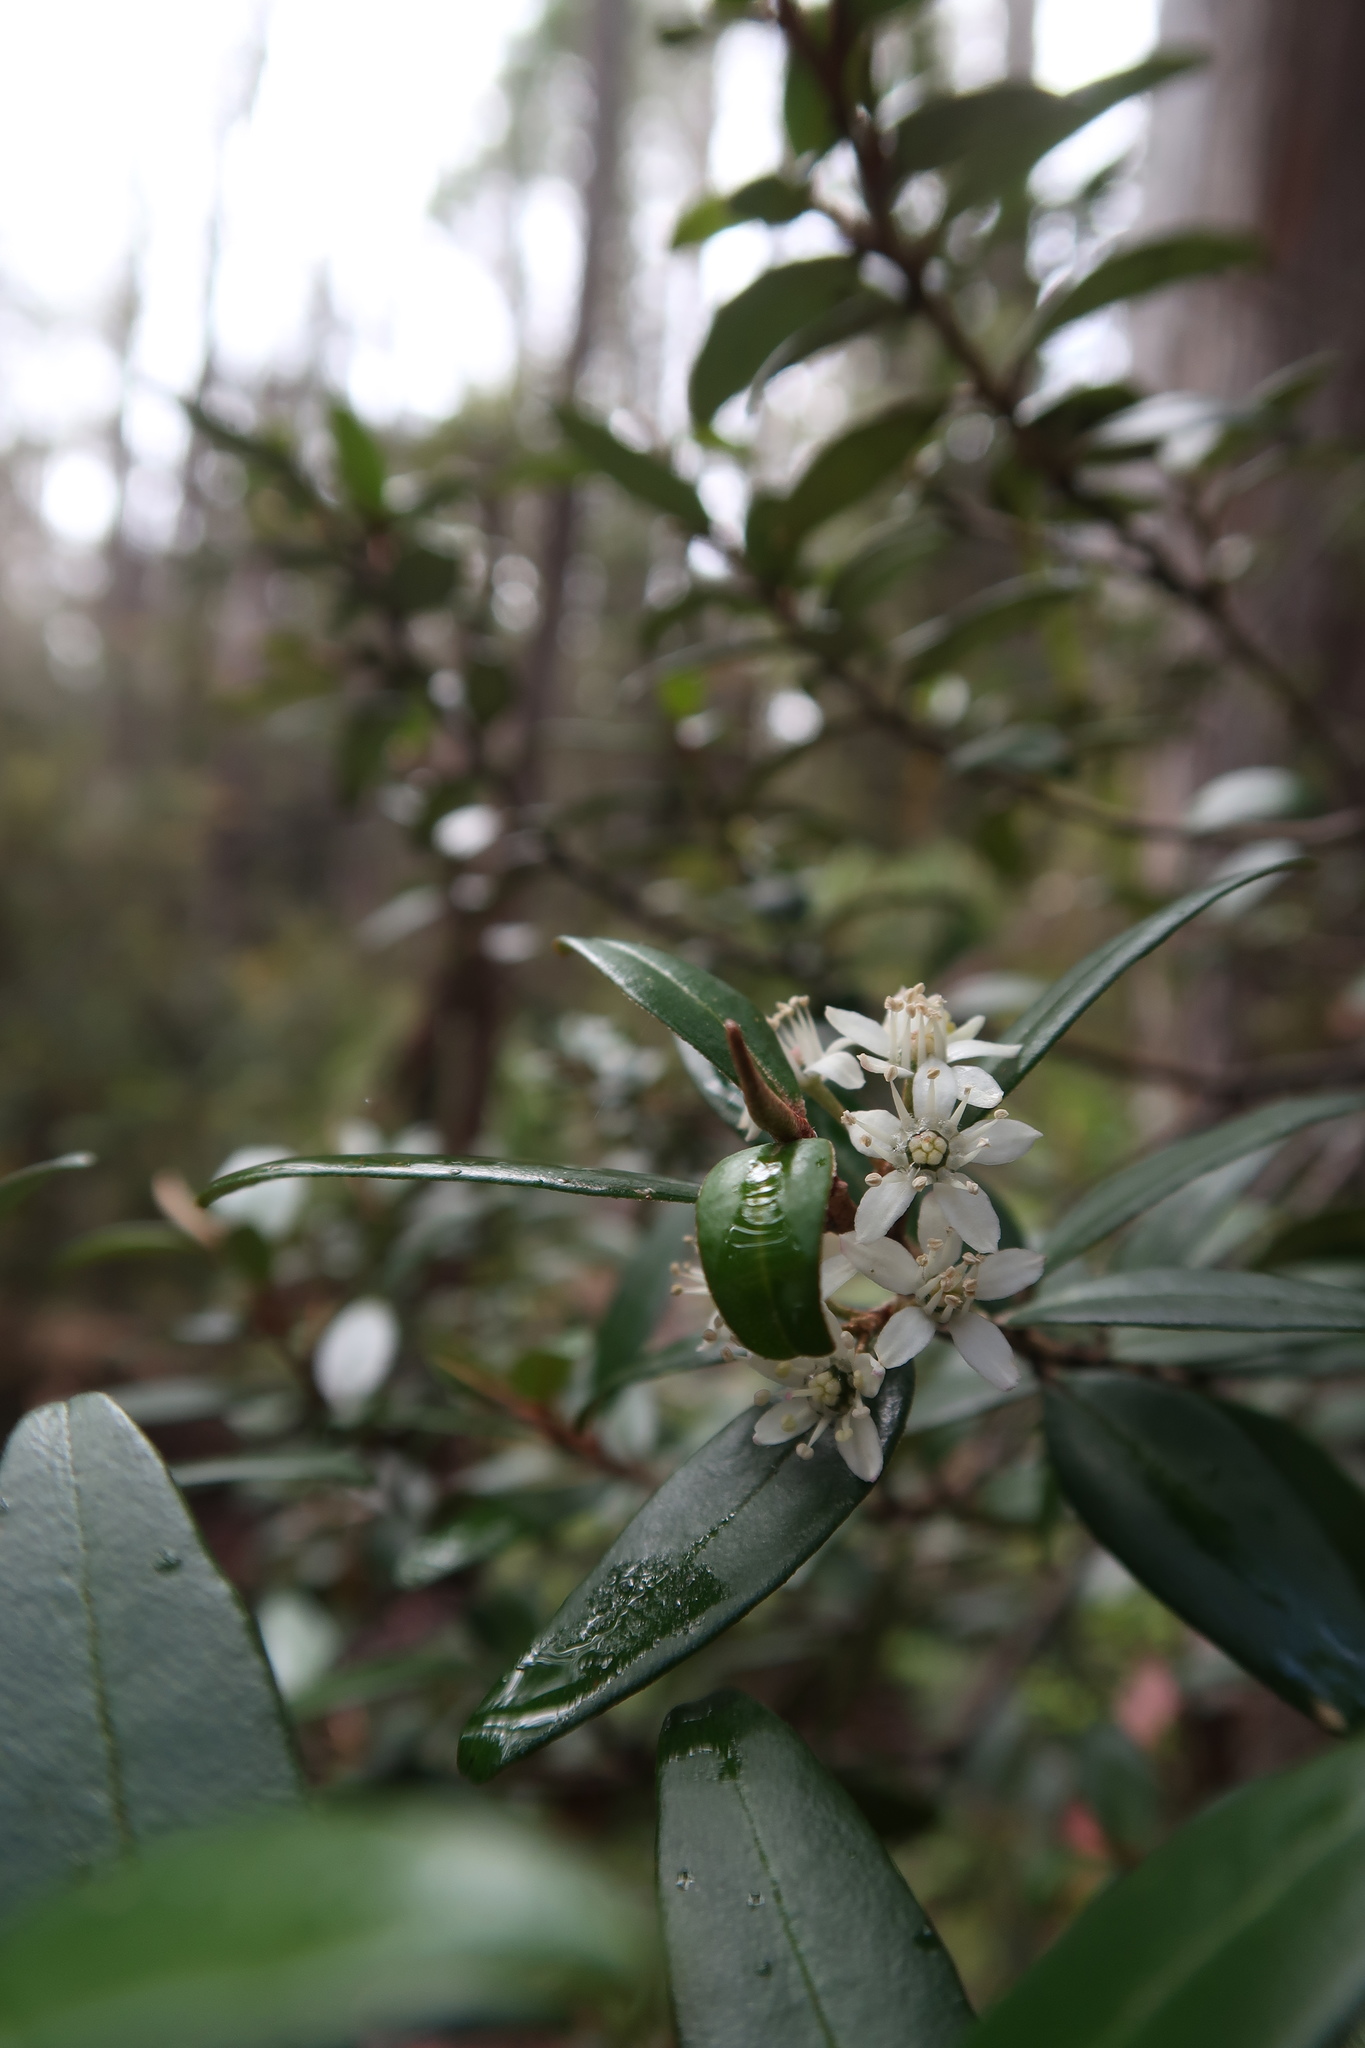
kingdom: Plantae
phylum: Tracheophyta
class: Magnoliopsida
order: Sapindales
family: Rutaceae
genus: Nematolepis
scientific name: Nematolepis squamea
